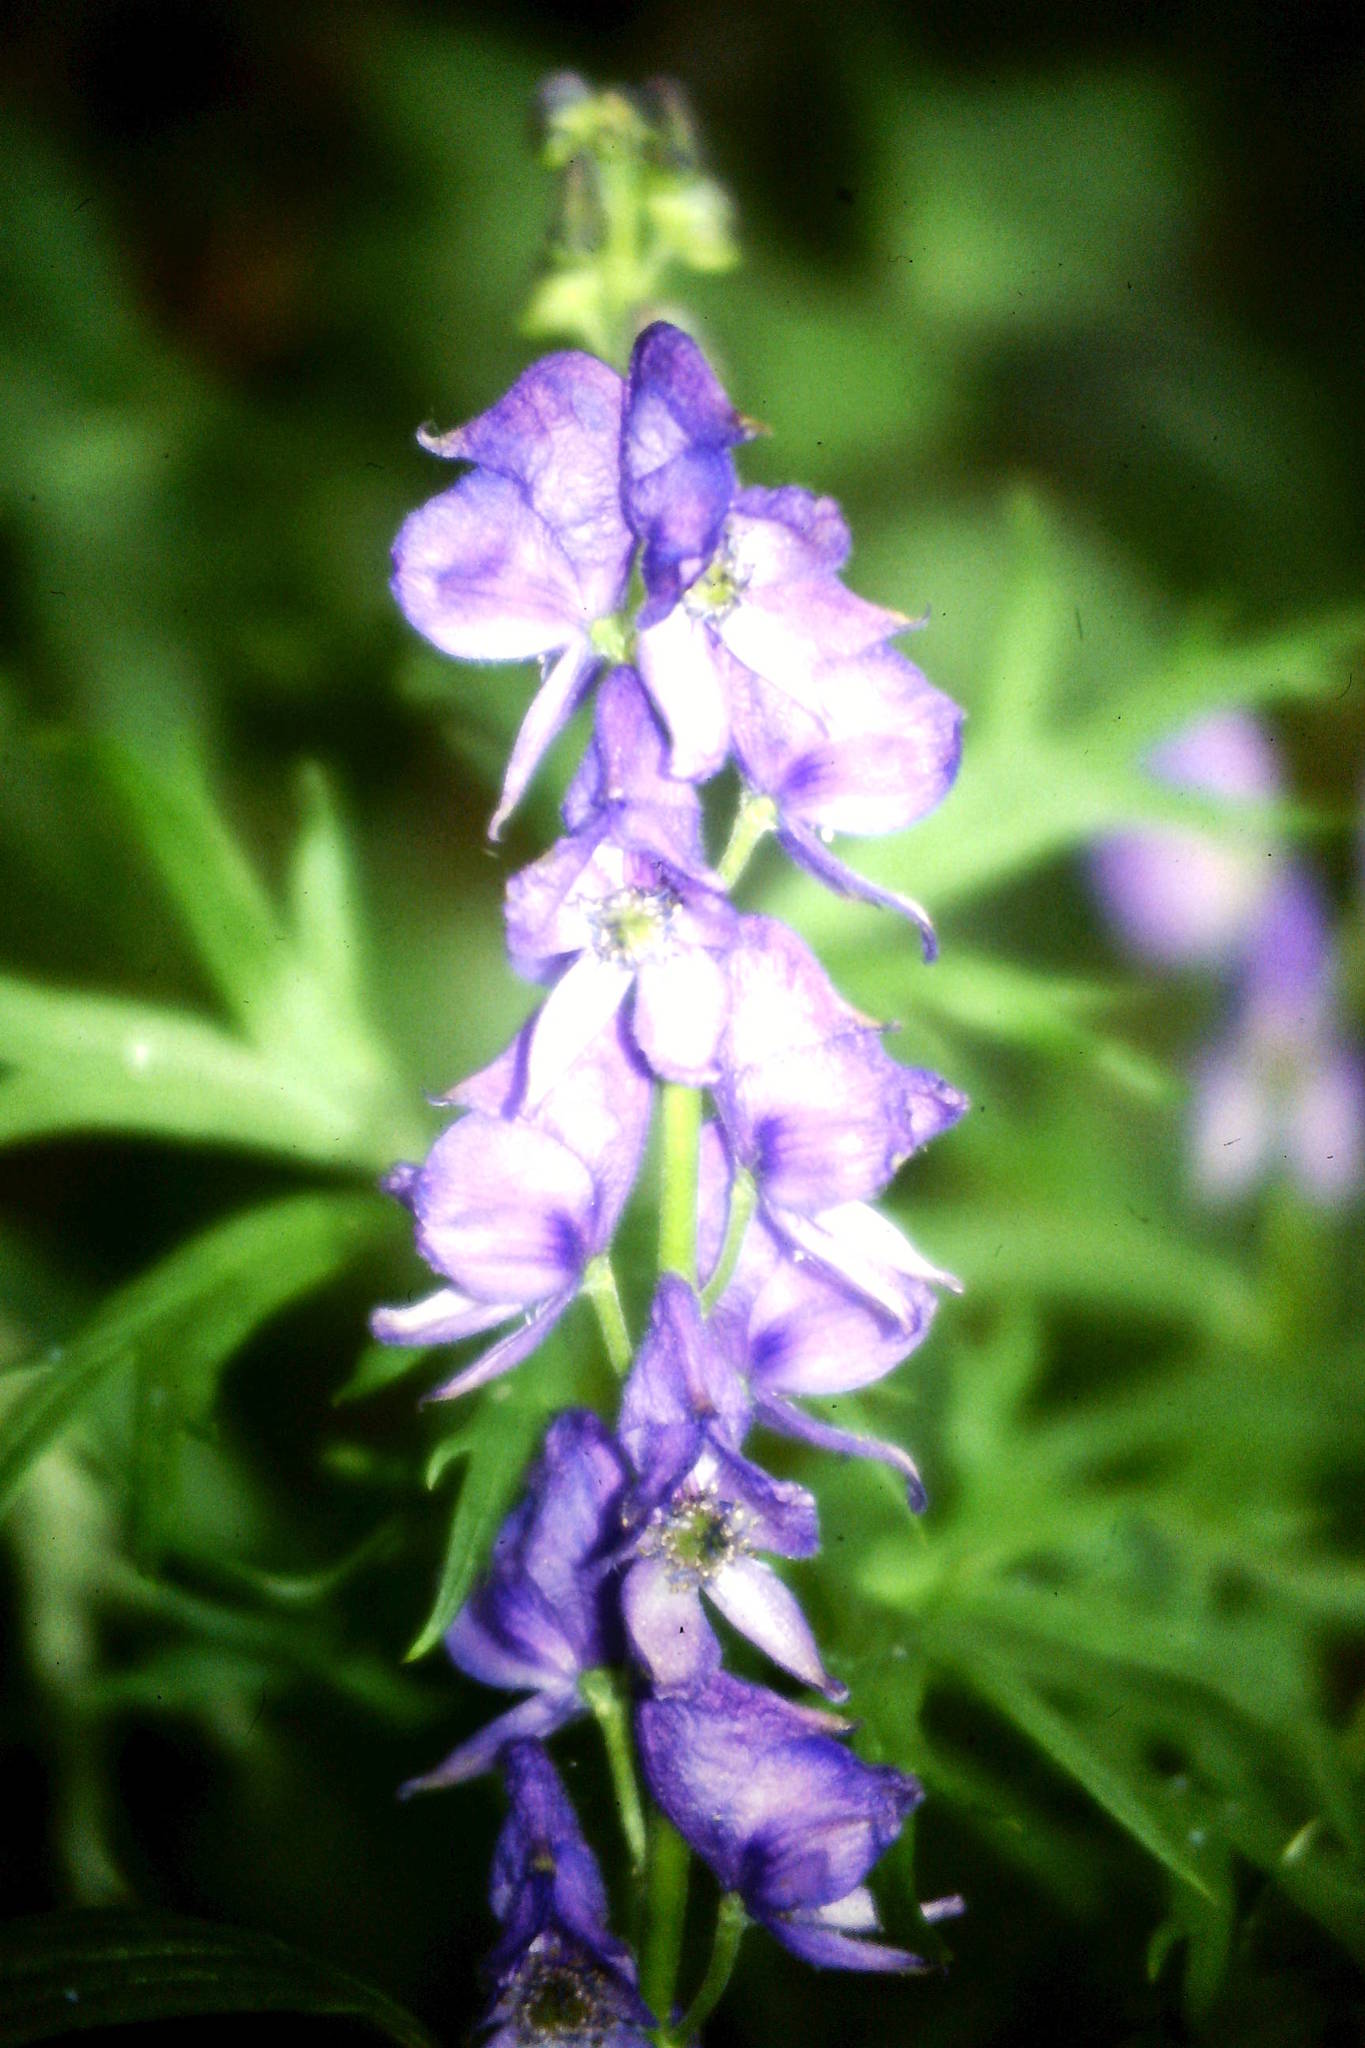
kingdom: Plantae
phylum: Tracheophyta
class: Magnoliopsida
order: Ranunculales
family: Ranunculaceae
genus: Aconitum
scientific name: Aconitum napellus
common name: Garden monkshood
